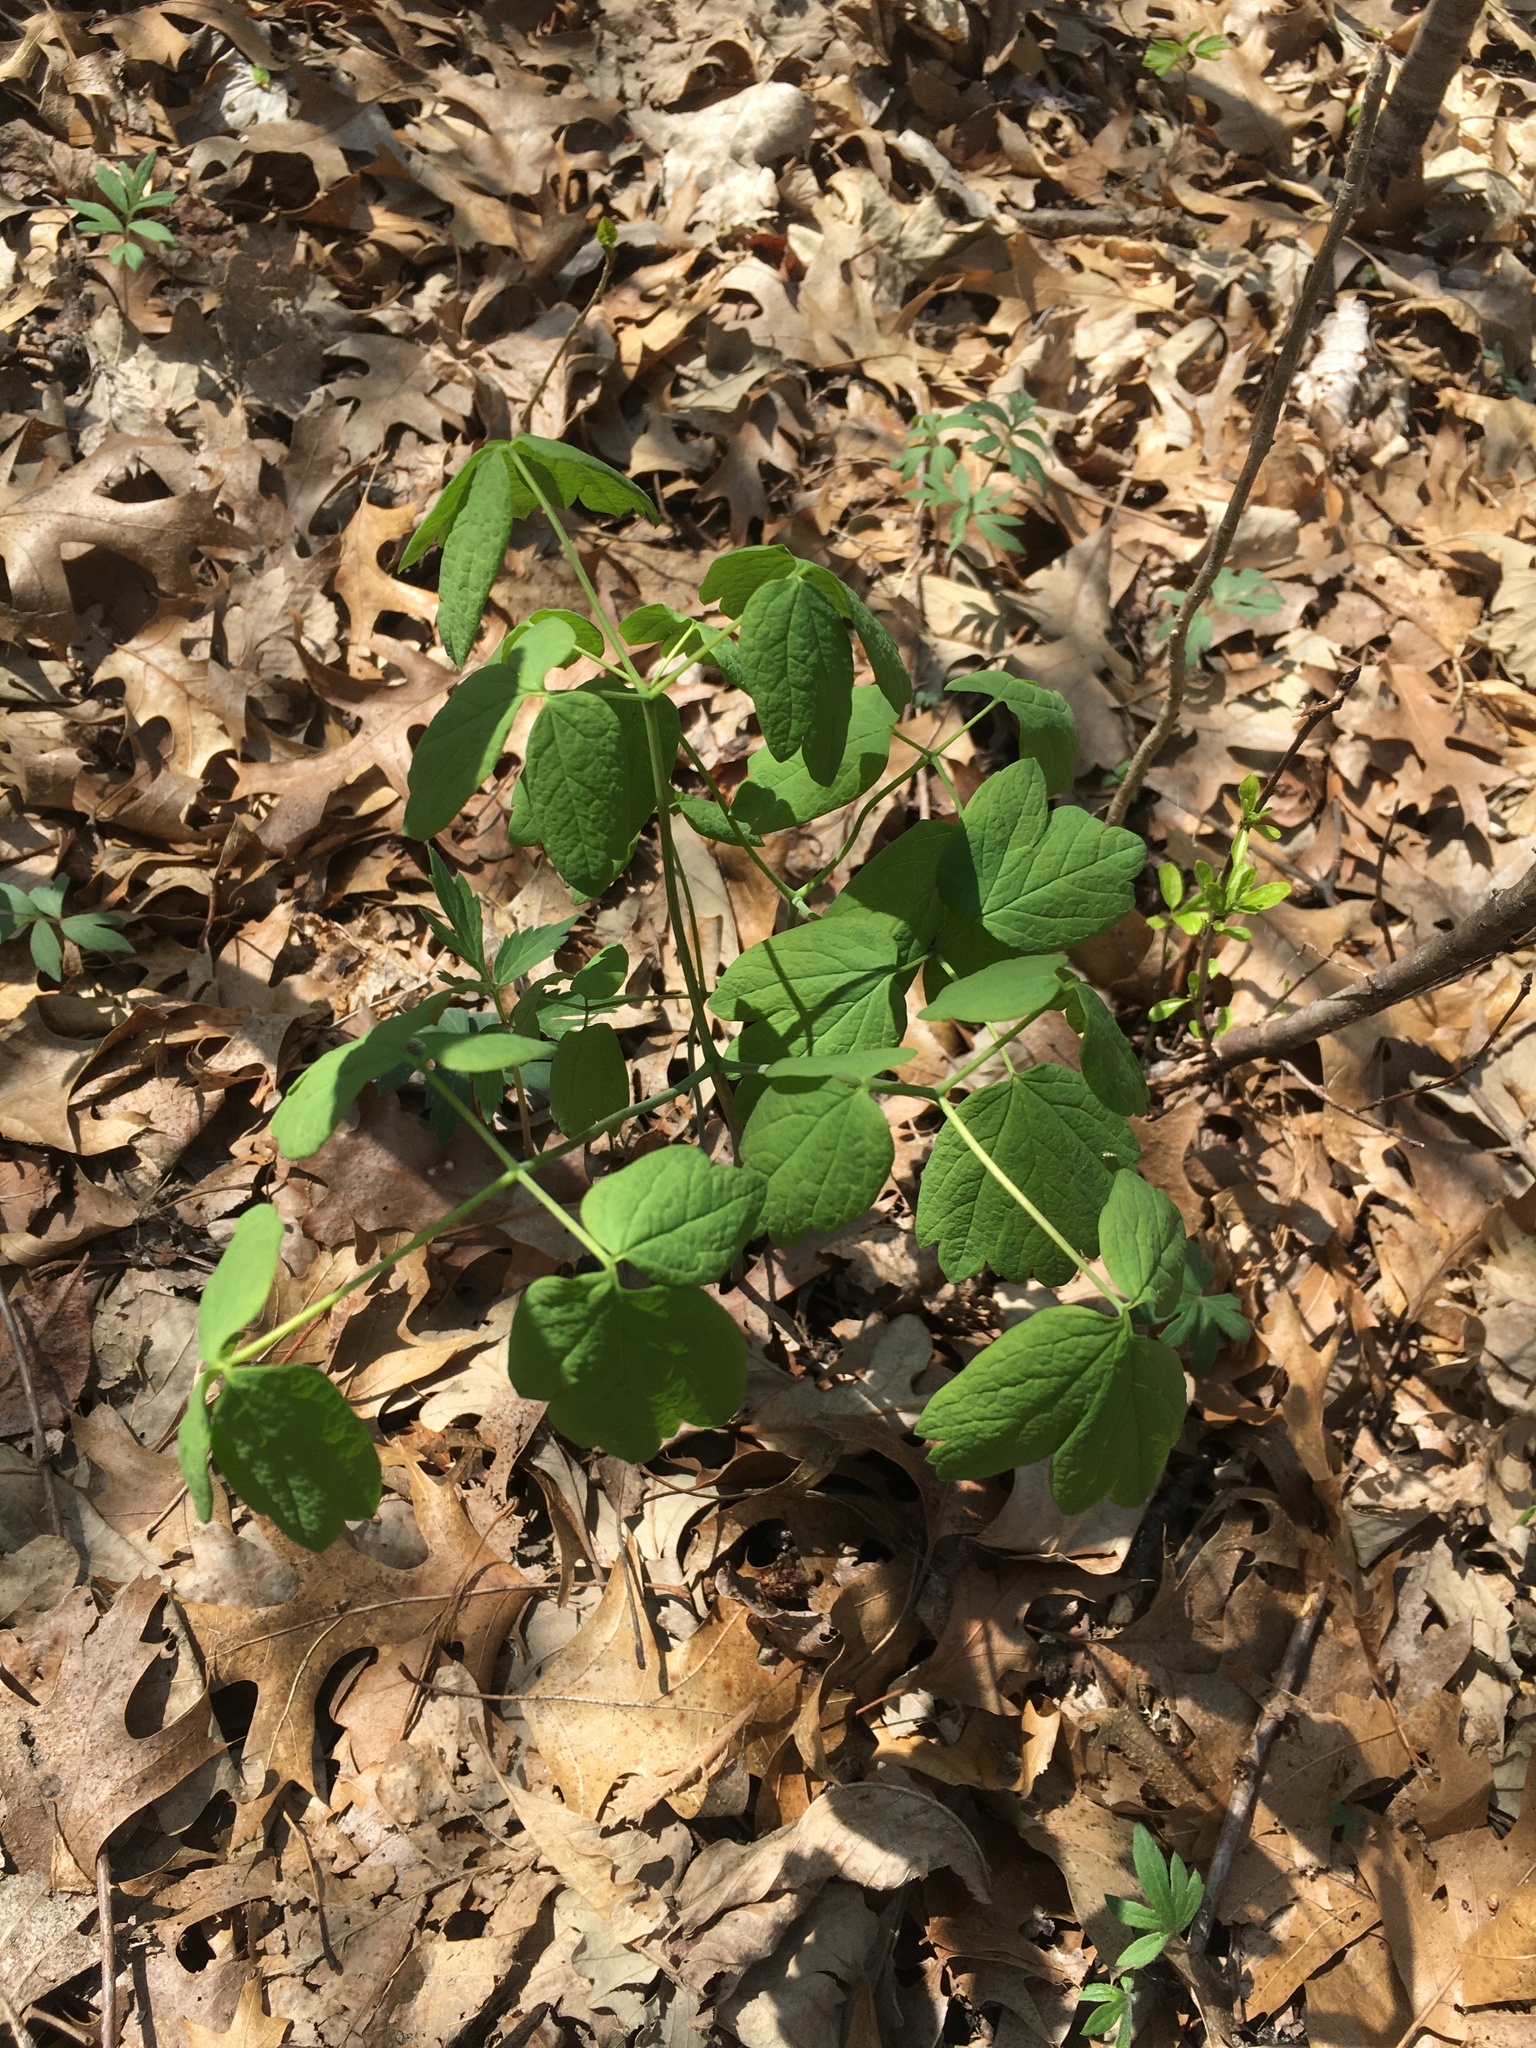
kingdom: Plantae
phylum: Tracheophyta
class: Magnoliopsida
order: Ranunculales
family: Berberidaceae
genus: Caulophyllum
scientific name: Caulophyllum thalictroides
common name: Blue cohosh
